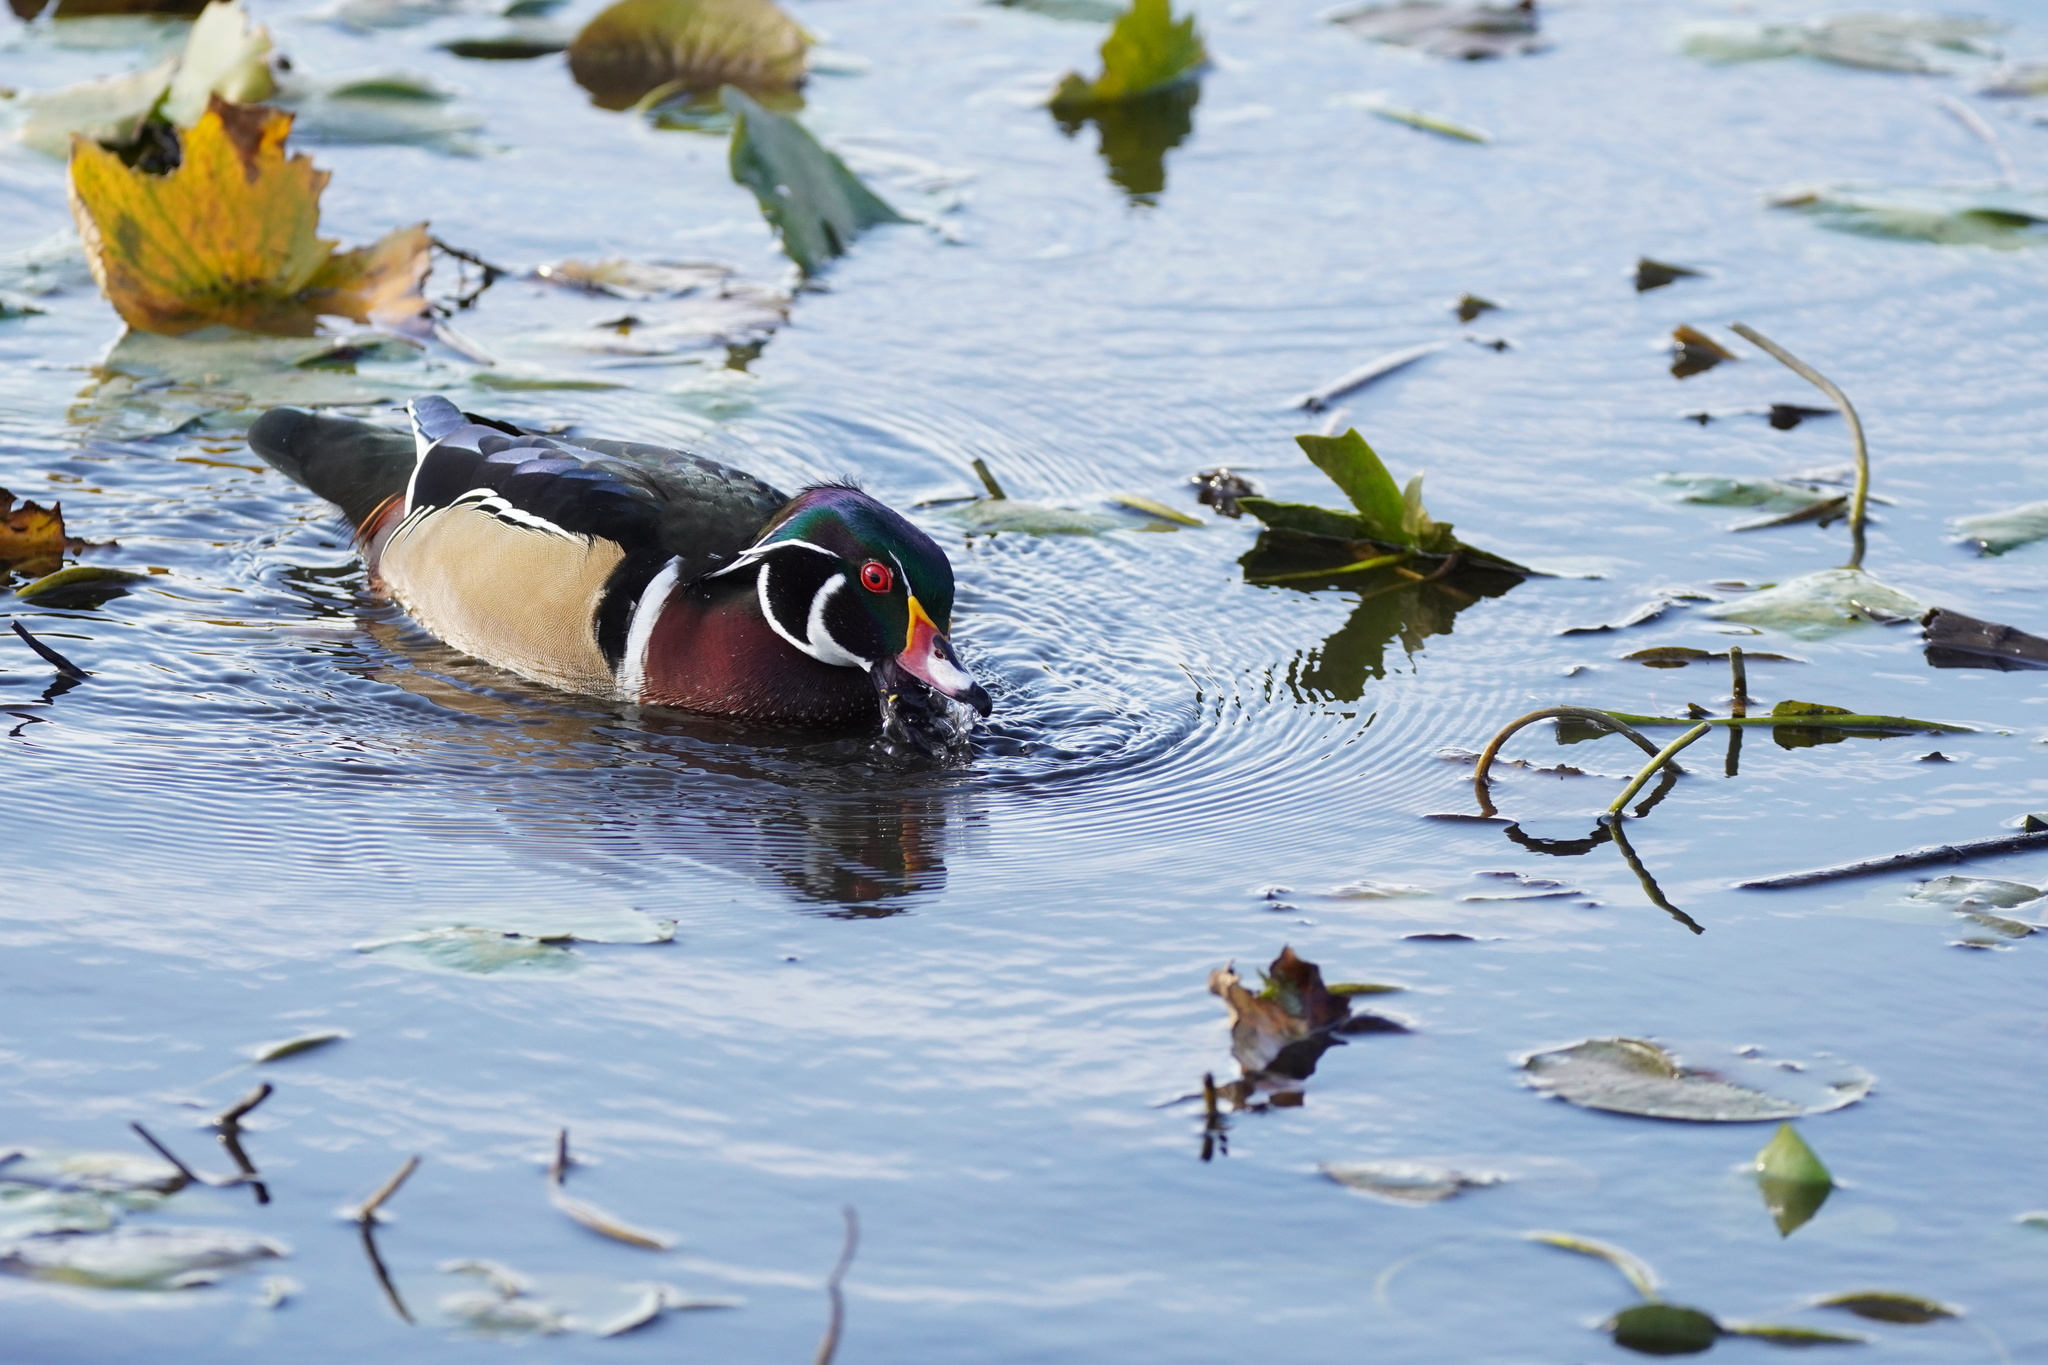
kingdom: Animalia
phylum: Chordata
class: Aves
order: Anseriformes
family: Anatidae
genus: Aix
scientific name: Aix sponsa
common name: Wood duck
